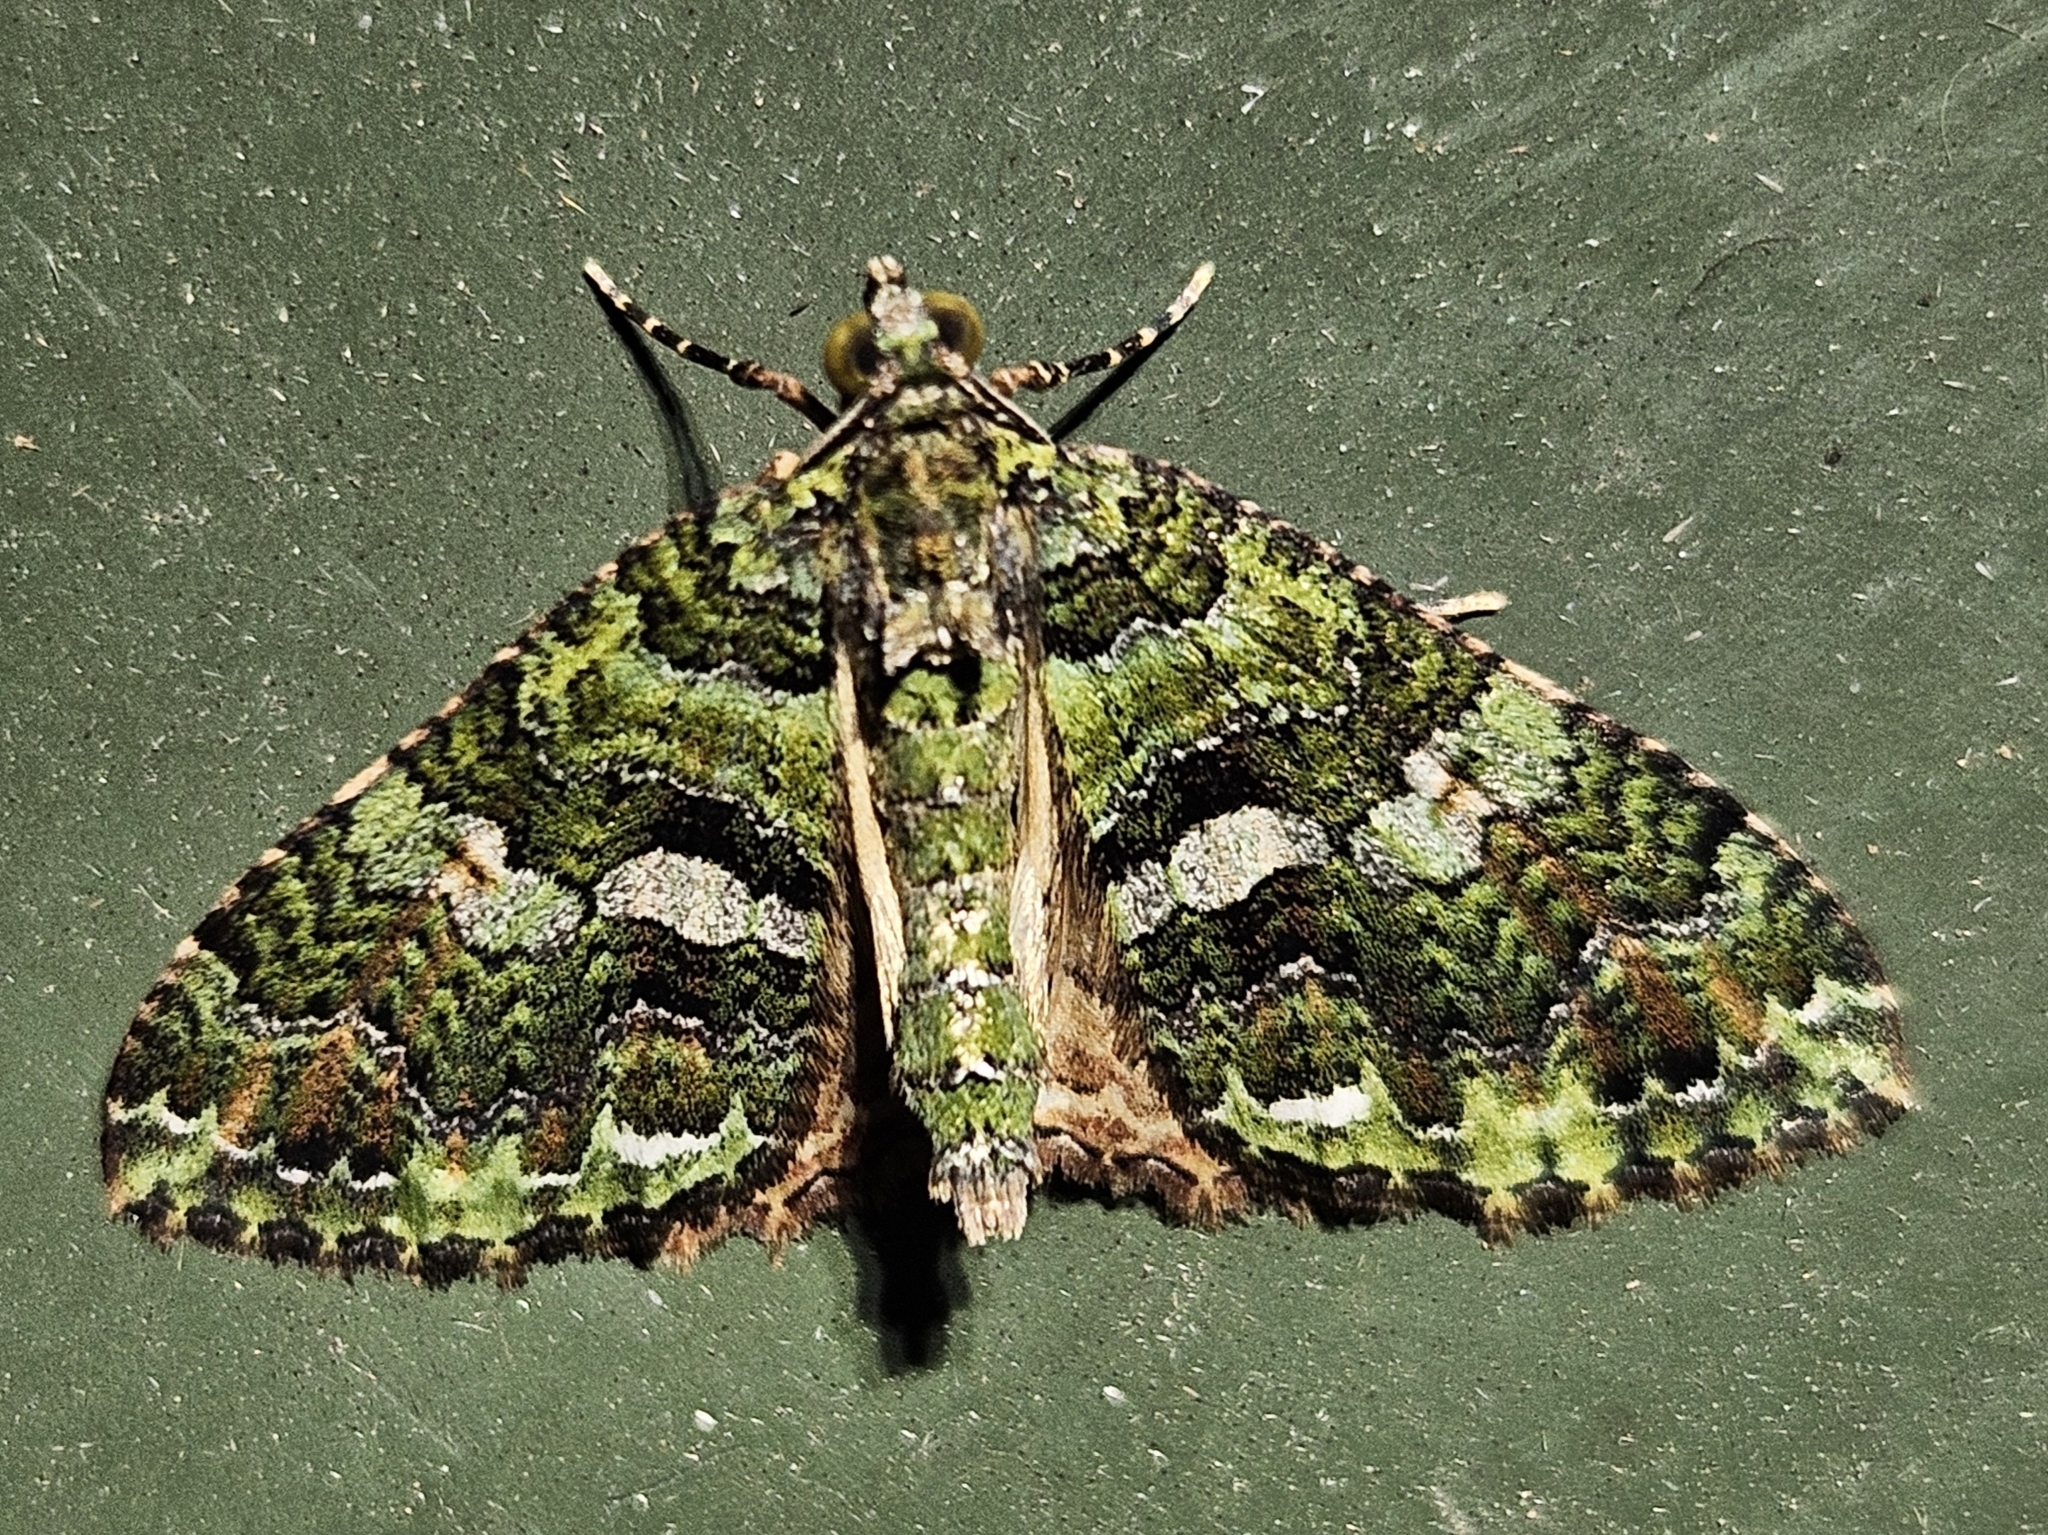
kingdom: Animalia
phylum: Arthropoda
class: Insecta
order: Lepidoptera
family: Geometridae
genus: Austrocidaria
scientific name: Austrocidaria similata
